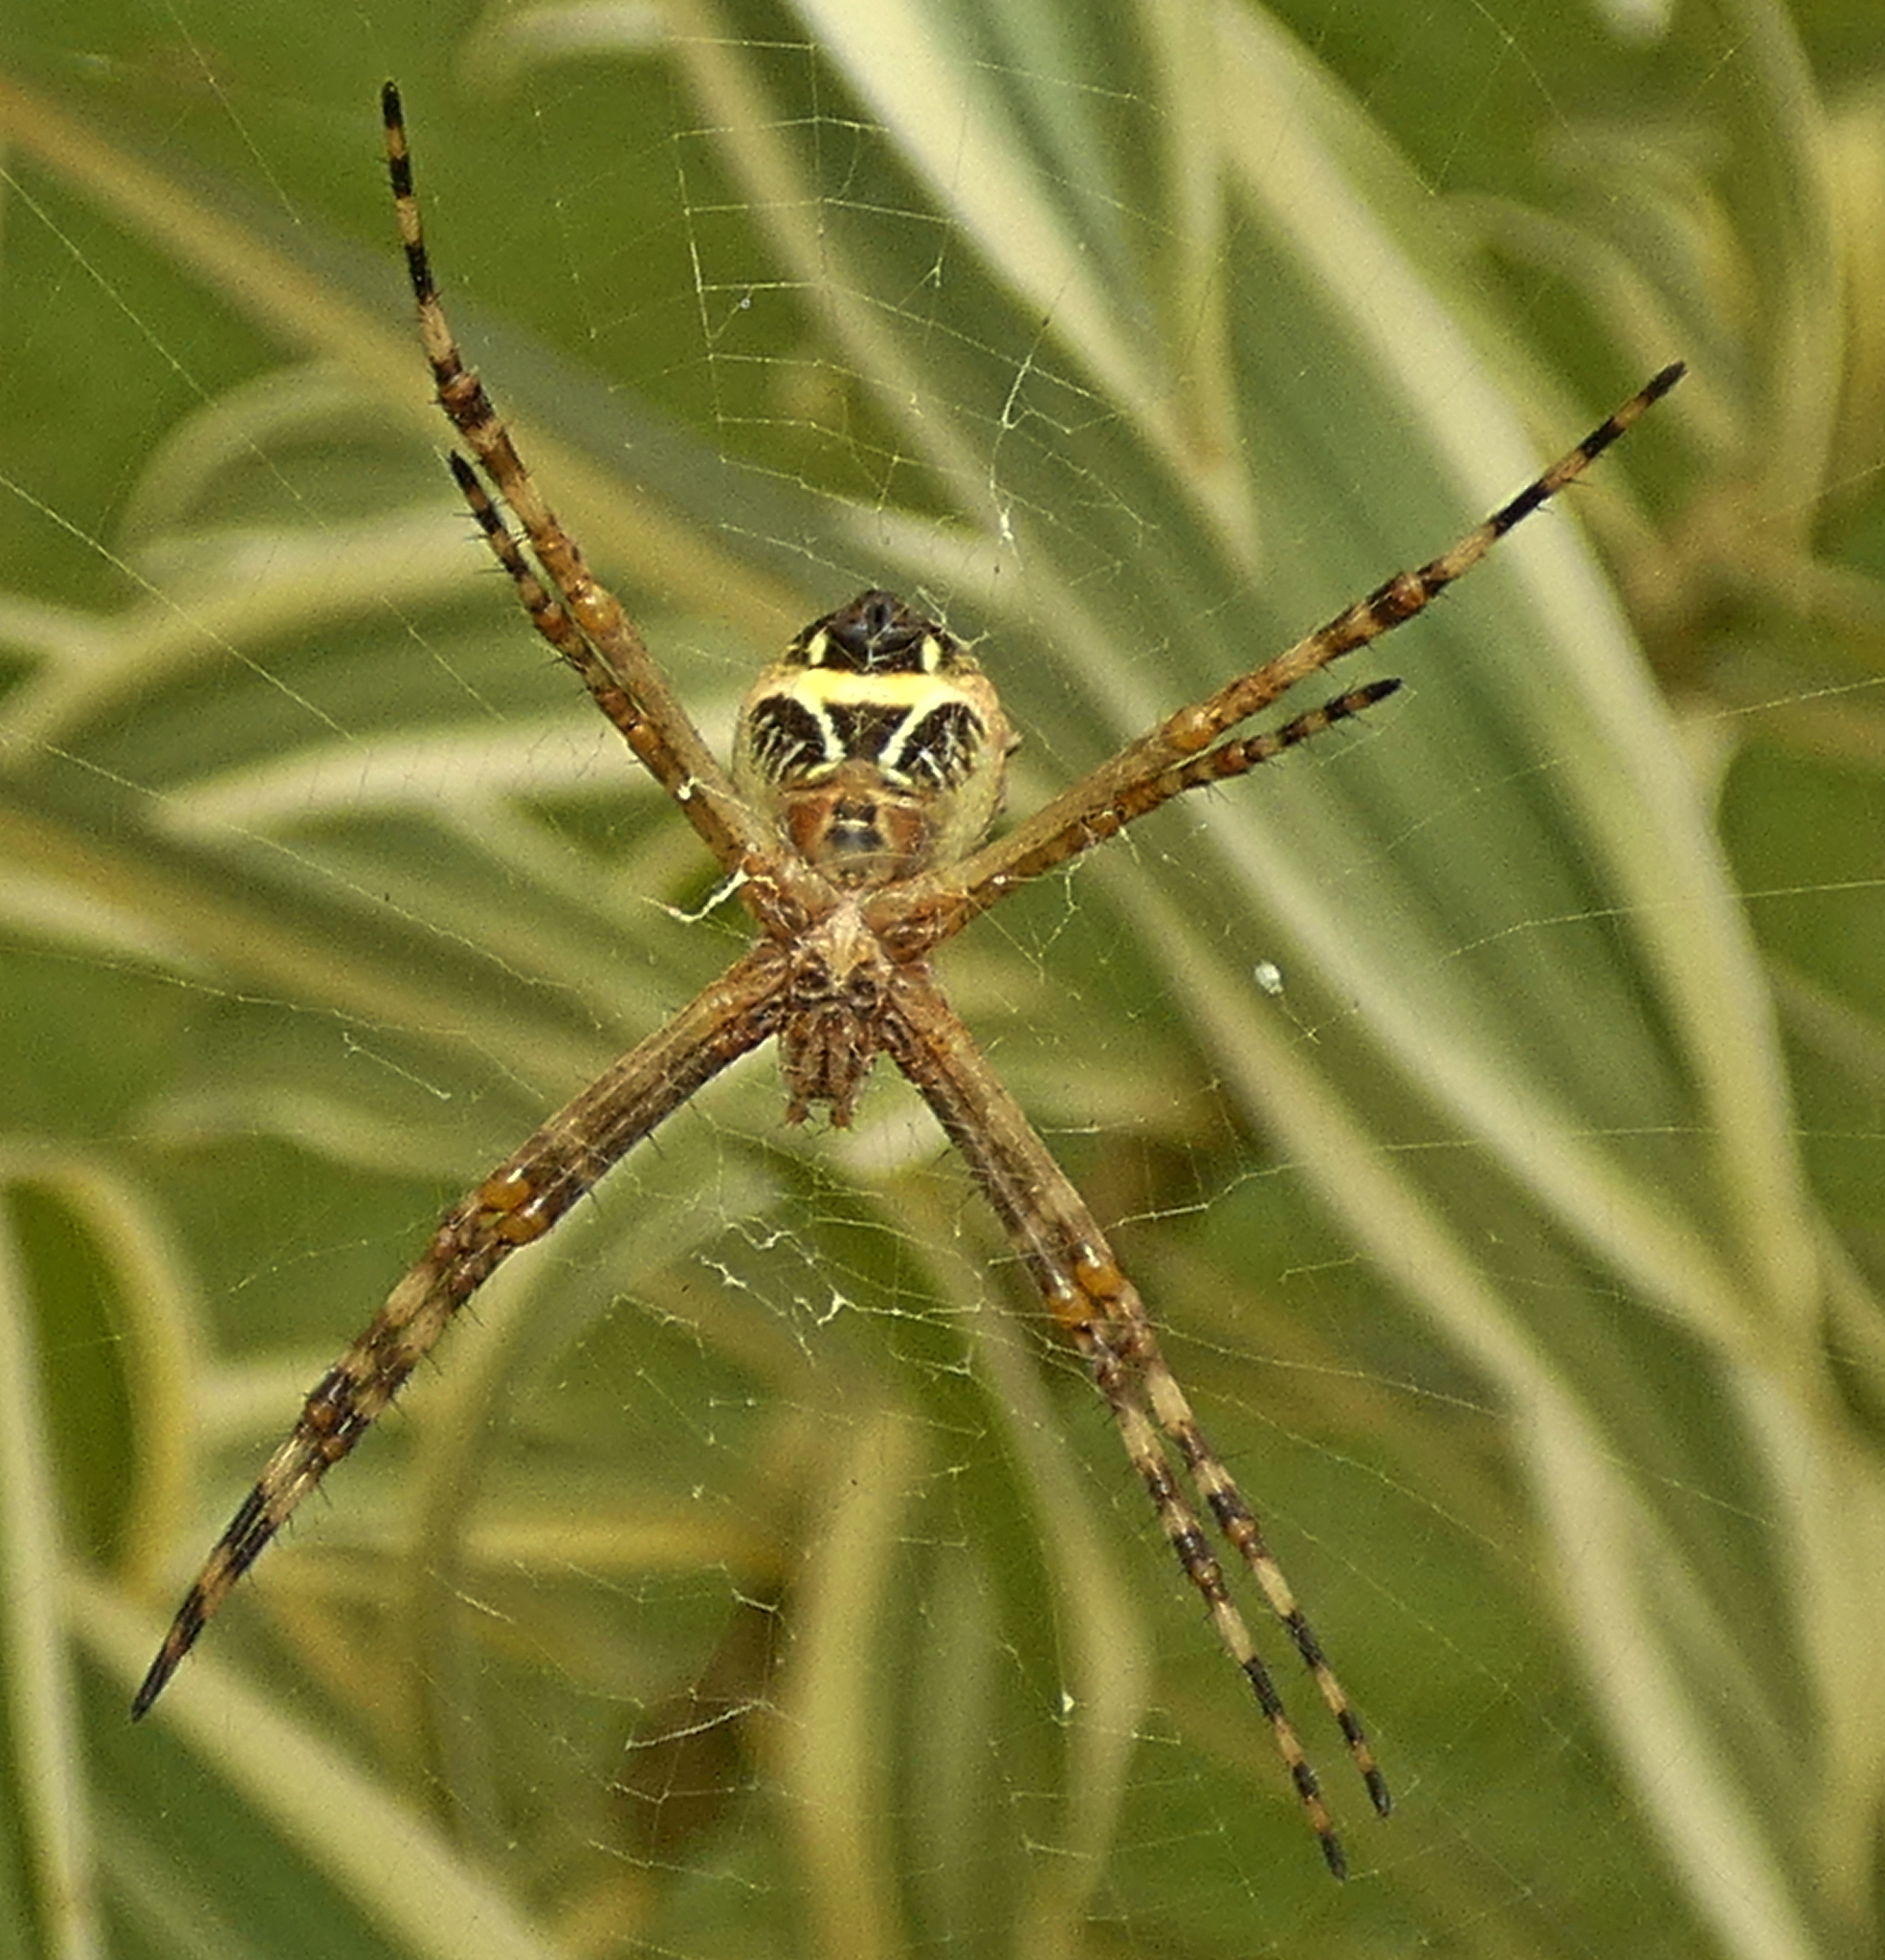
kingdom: Animalia
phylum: Arthropoda
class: Arachnida
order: Araneae
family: Araneidae
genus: Argiope
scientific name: Argiope argentata
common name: Orb weavers
